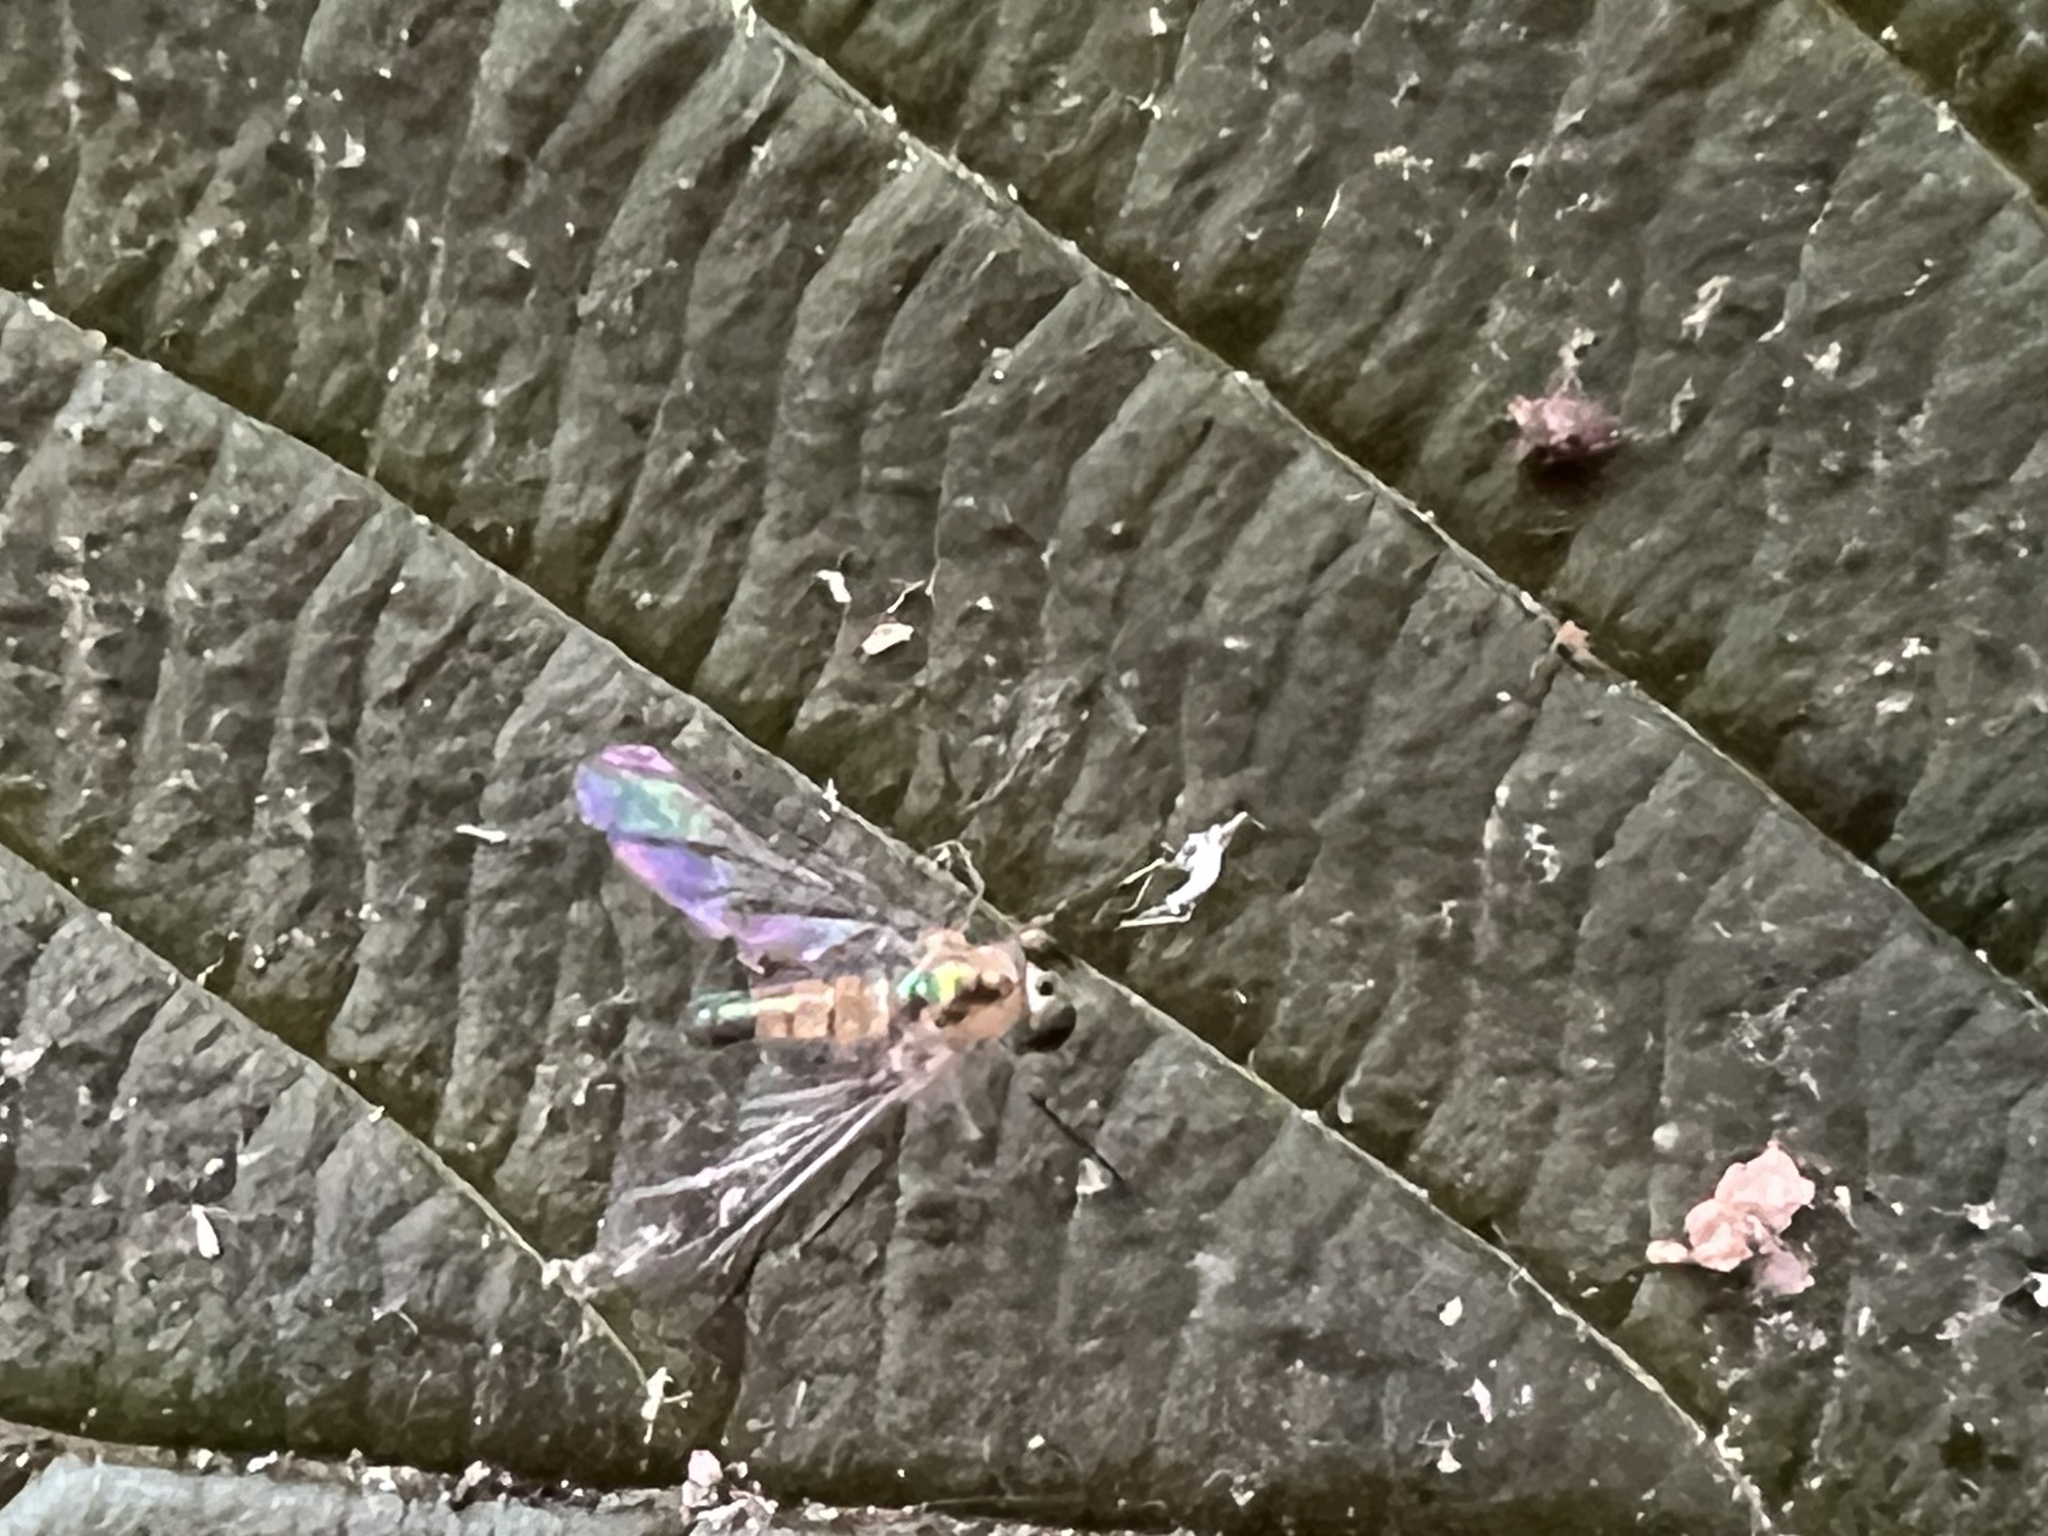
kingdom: Animalia
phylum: Arthropoda
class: Insecta
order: Diptera
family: Dolichopodidae
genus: Amblypsilopus
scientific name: Amblypsilopus dorsalis
